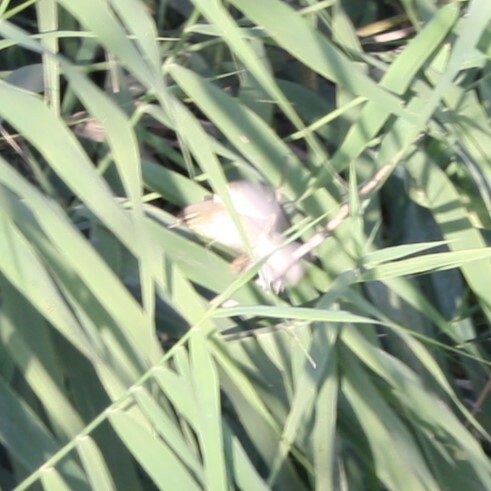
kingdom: Animalia
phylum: Chordata
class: Aves
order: Passeriformes
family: Phylloscopidae
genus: Phylloscopus
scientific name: Phylloscopus trochilus
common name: Willow warbler
